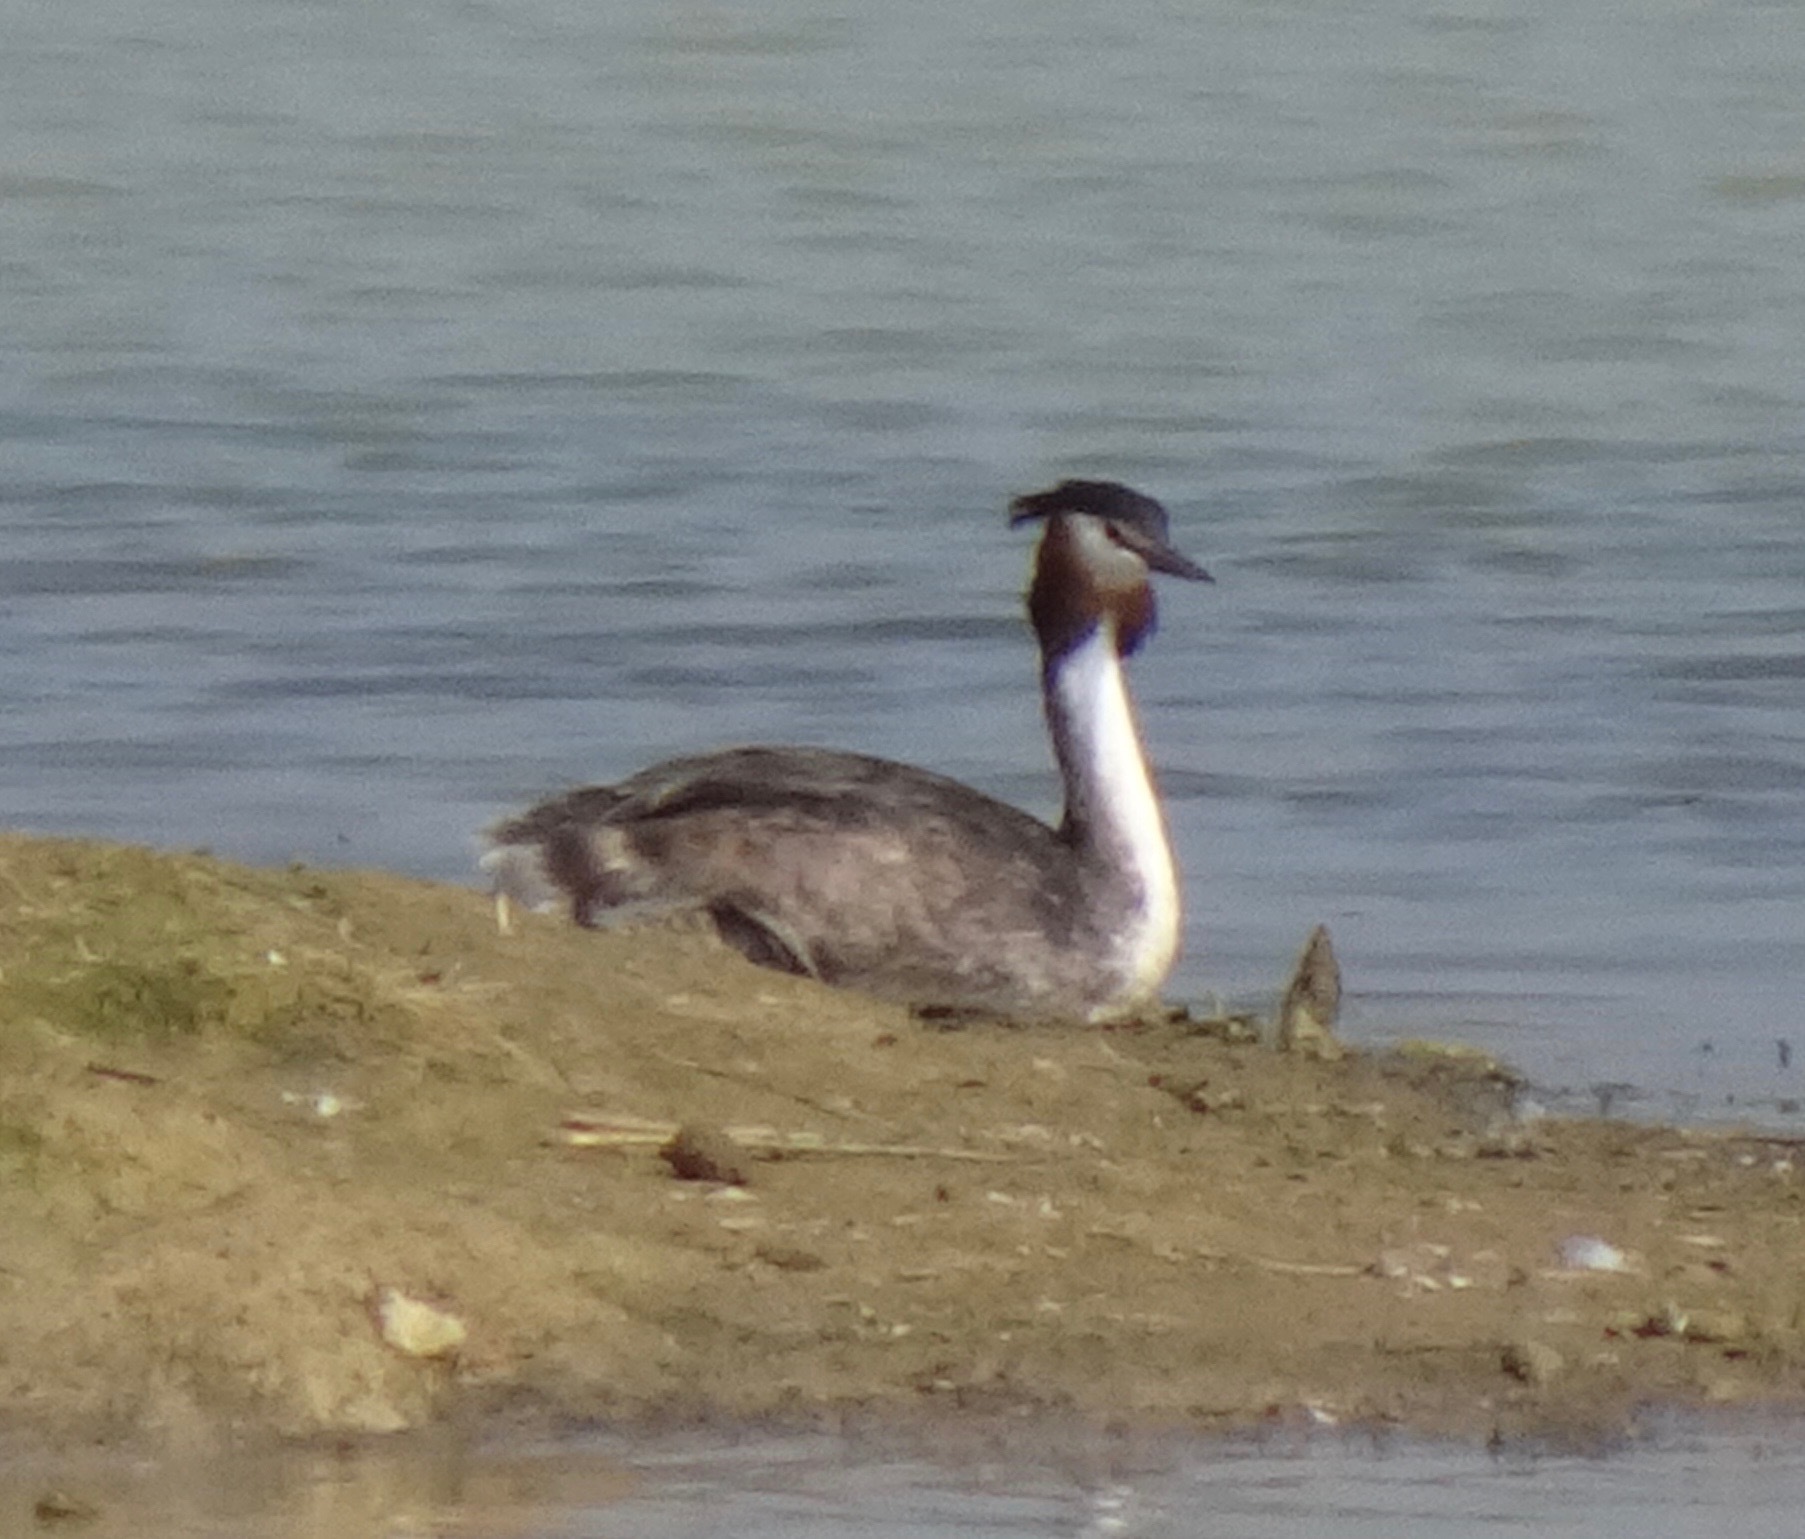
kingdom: Animalia
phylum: Chordata
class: Aves
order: Podicipediformes
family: Podicipedidae
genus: Podiceps
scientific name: Podiceps cristatus
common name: Great crested grebe
